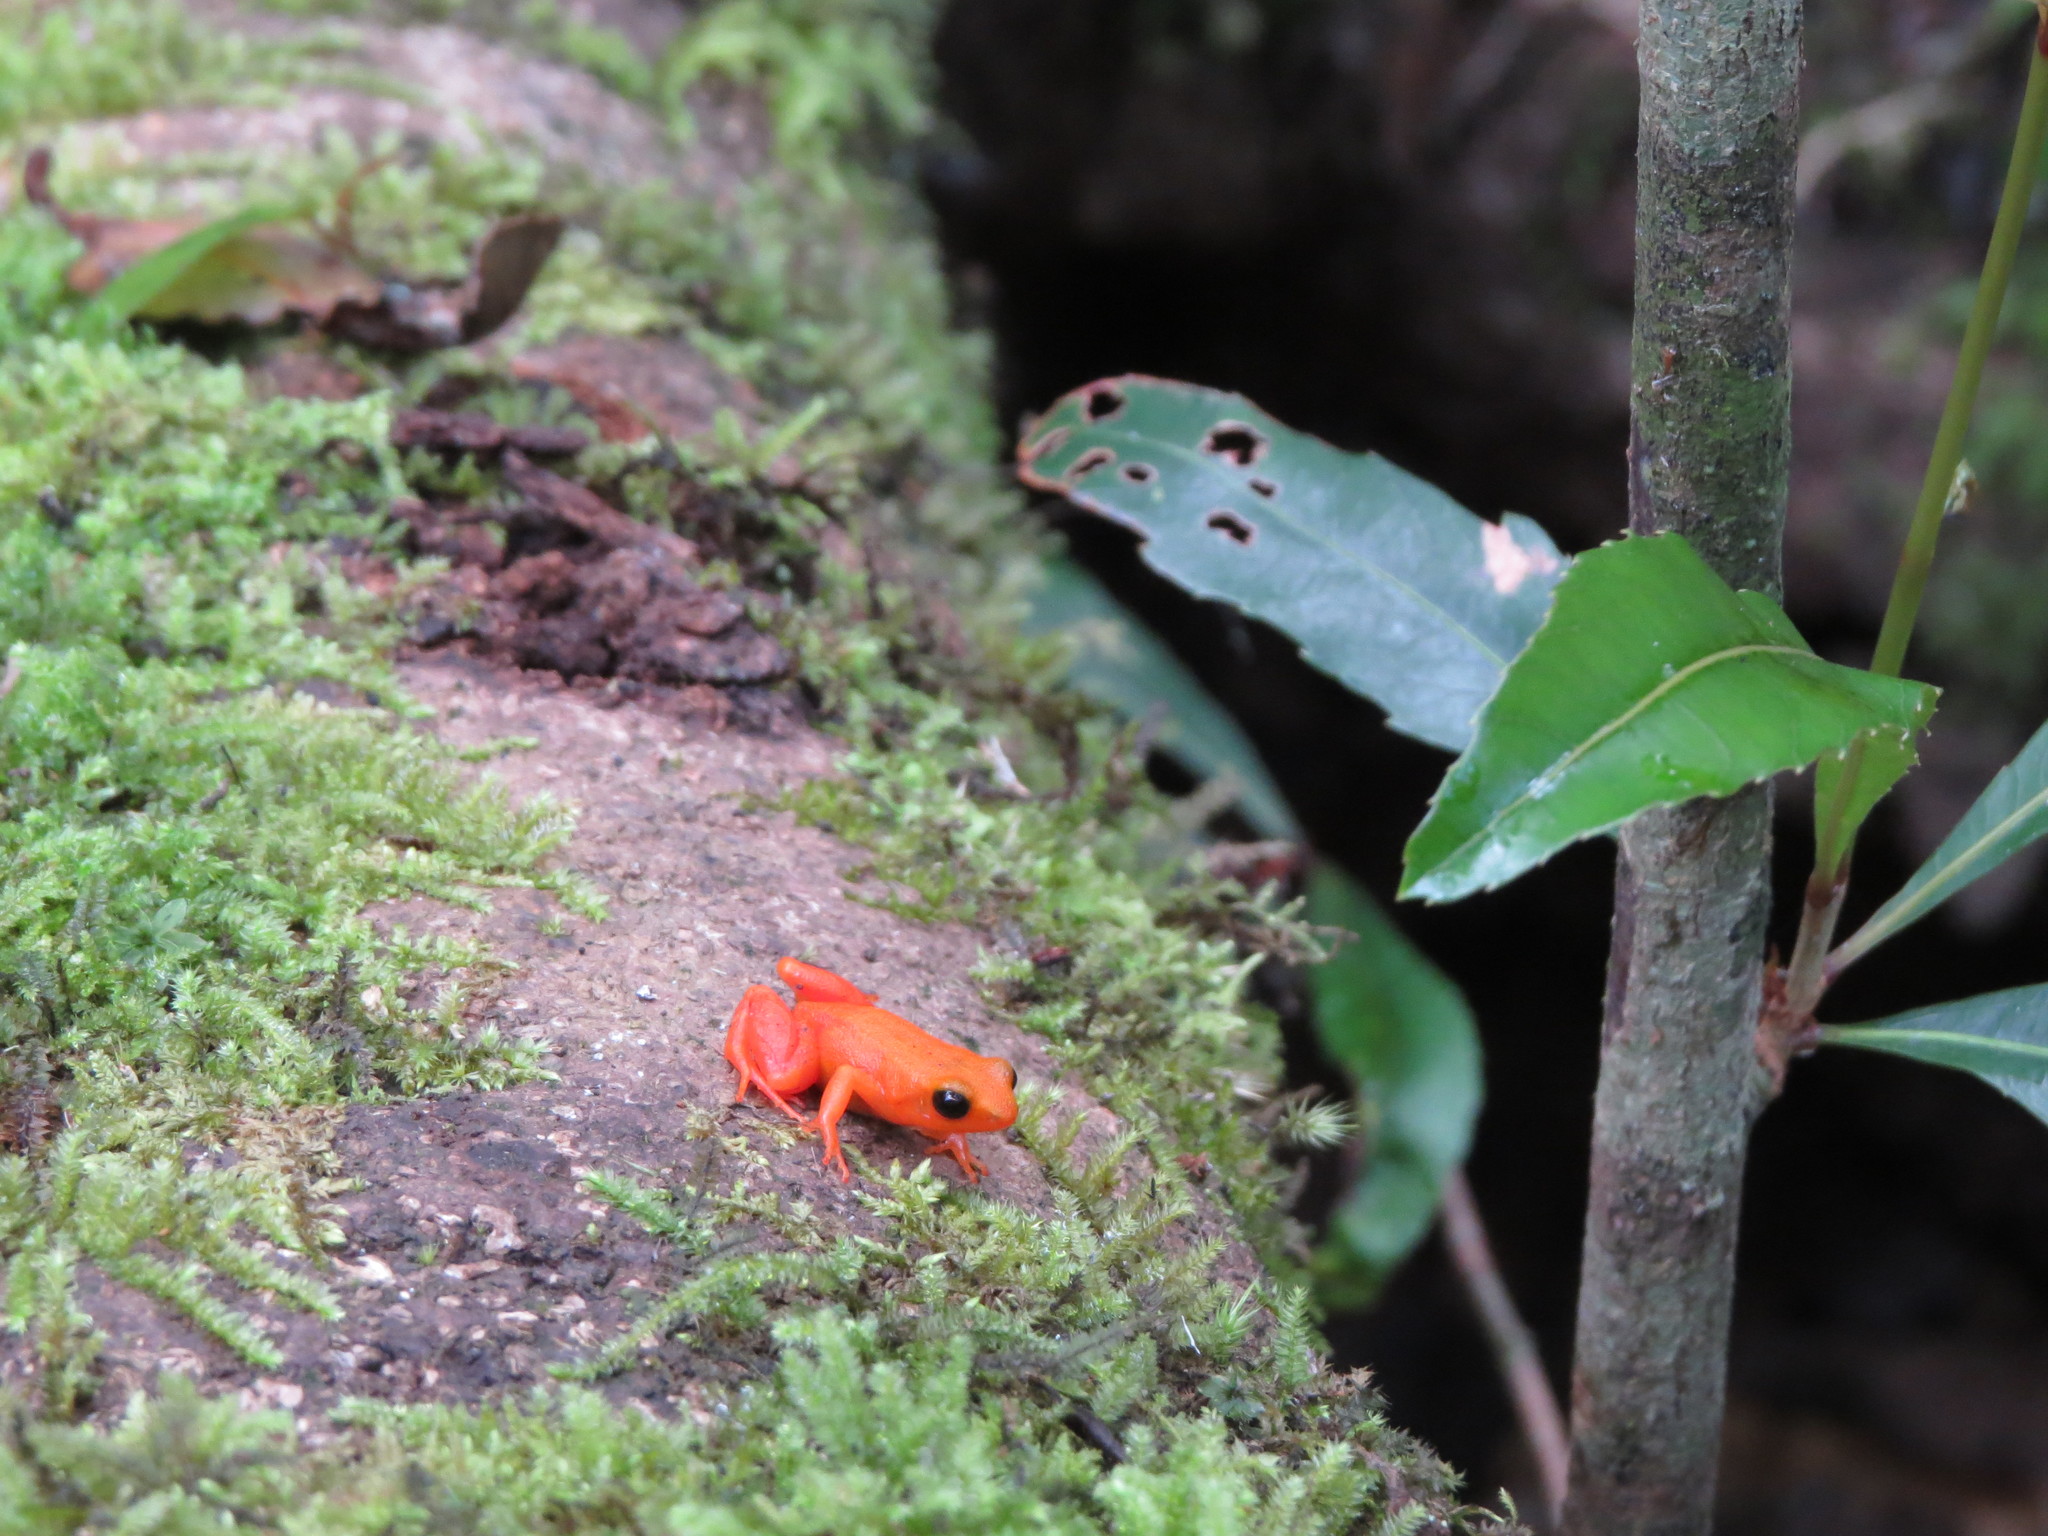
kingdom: Animalia
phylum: Chordata
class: Amphibia
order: Anura
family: Mantellidae
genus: Mantella
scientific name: Mantella aurantiaca
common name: Ginger tree frog
